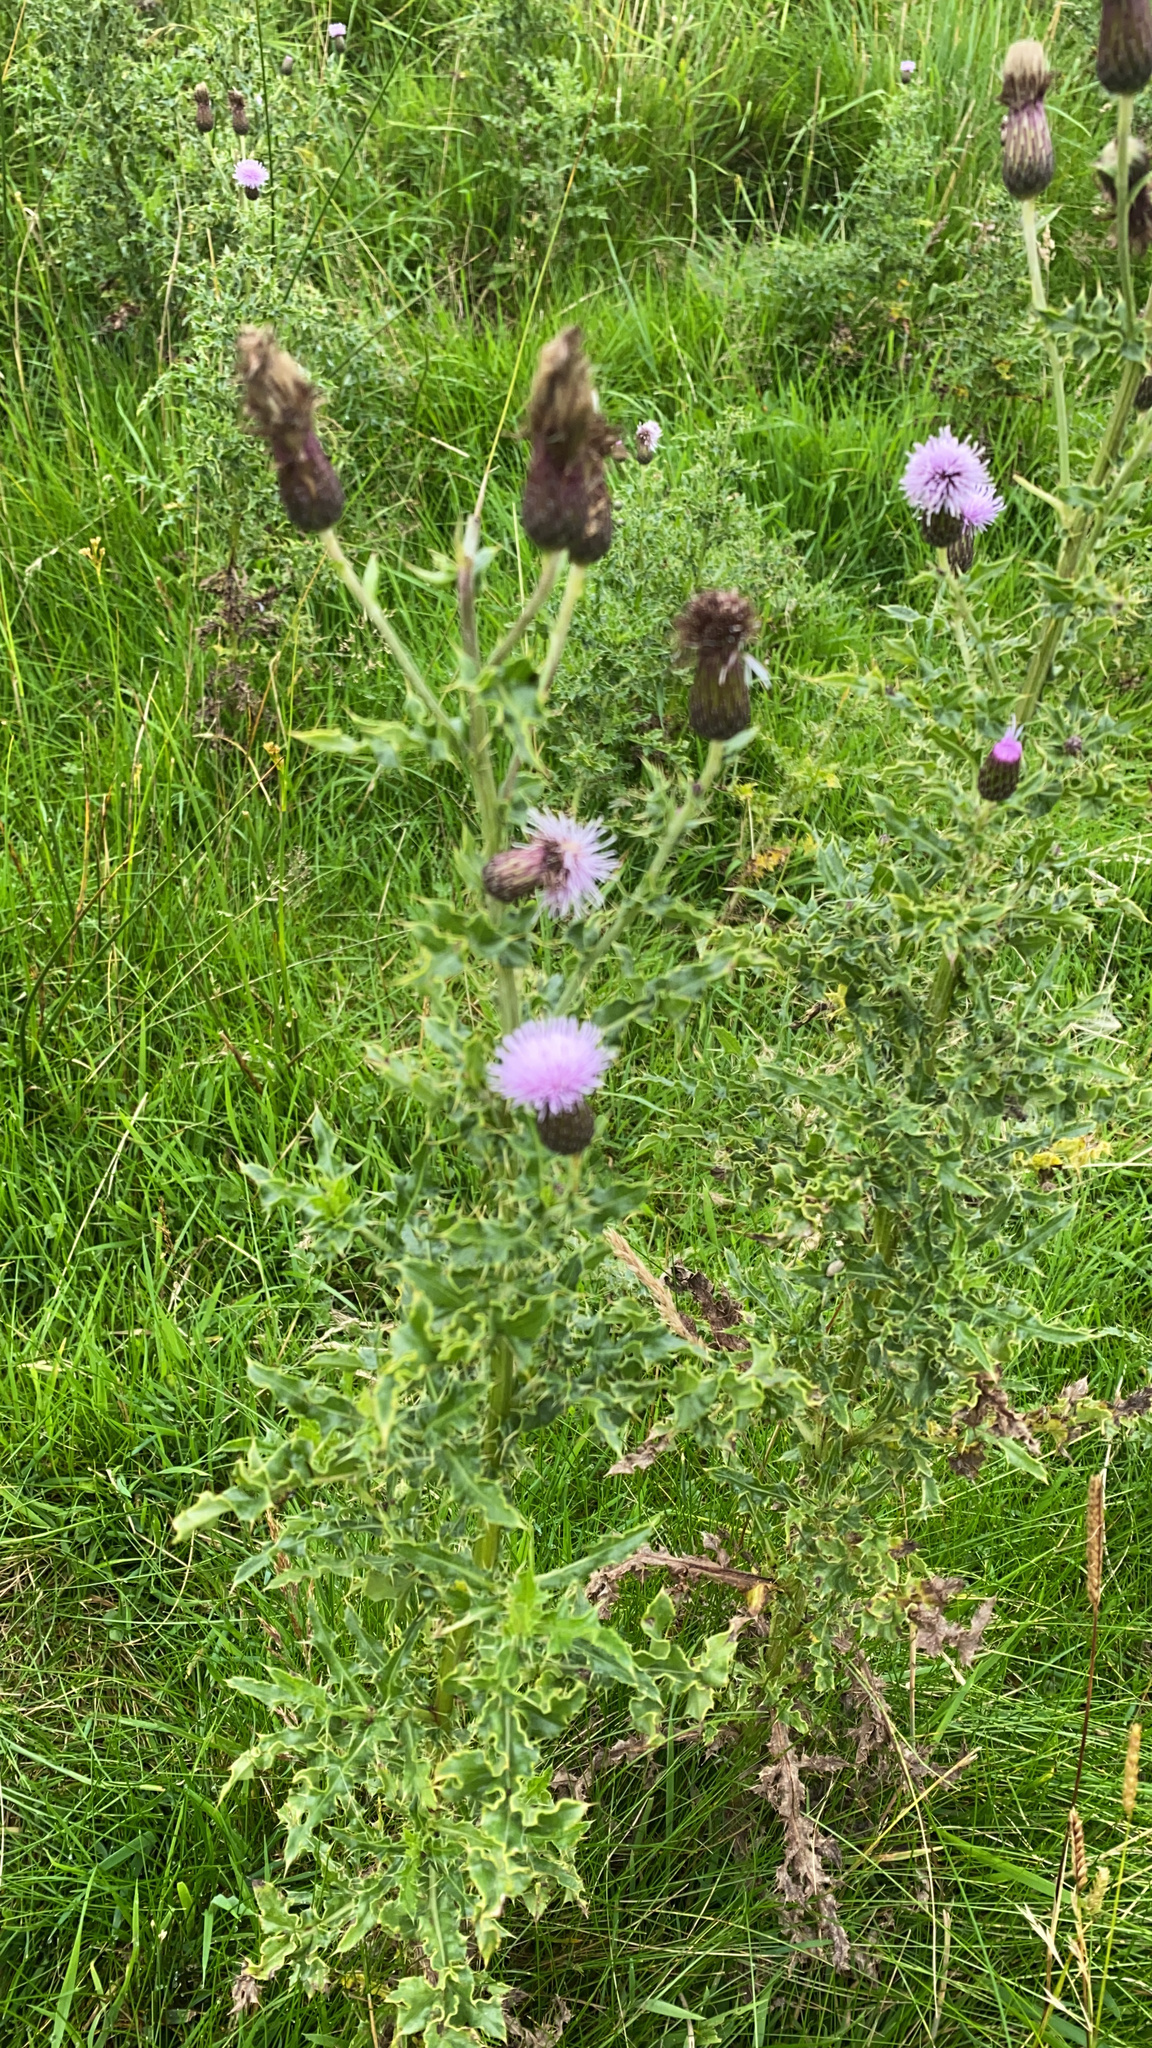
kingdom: Plantae
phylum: Tracheophyta
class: Magnoliopsida
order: Asterales
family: Asteraceae
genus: Cirsium
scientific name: Cirsium arvense
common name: Creeping thistle
